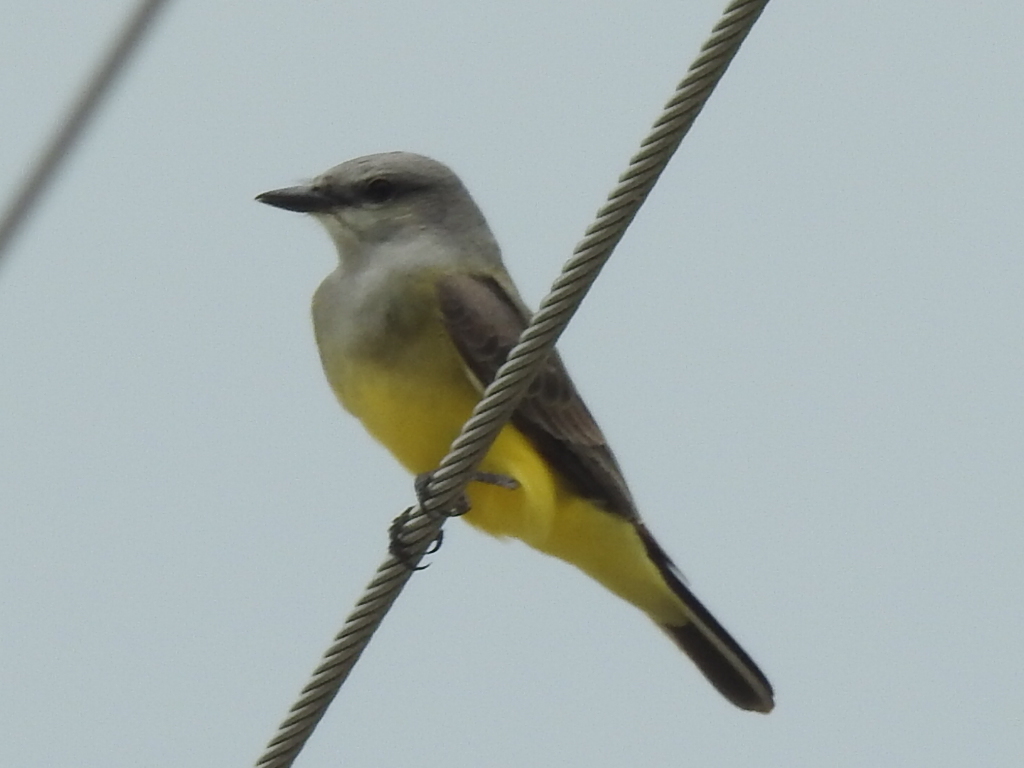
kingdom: Animalia
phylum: Chordata
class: Aves
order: Passeriformes
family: Tyrannidae
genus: Tyrannus
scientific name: Tyrannus verticalis
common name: Western kingbird
